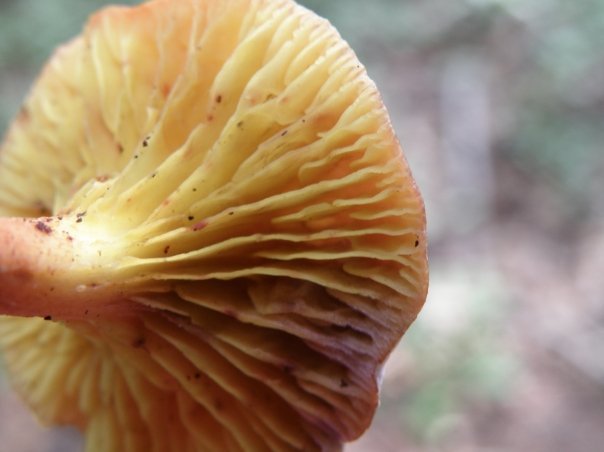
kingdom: Fungi
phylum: Basidiomycota
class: Agaricomycetes
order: Boletales
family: Boletaceae
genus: Phylloporus
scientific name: Phylloporus rhodoxanthus
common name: Golden gilled bolete
